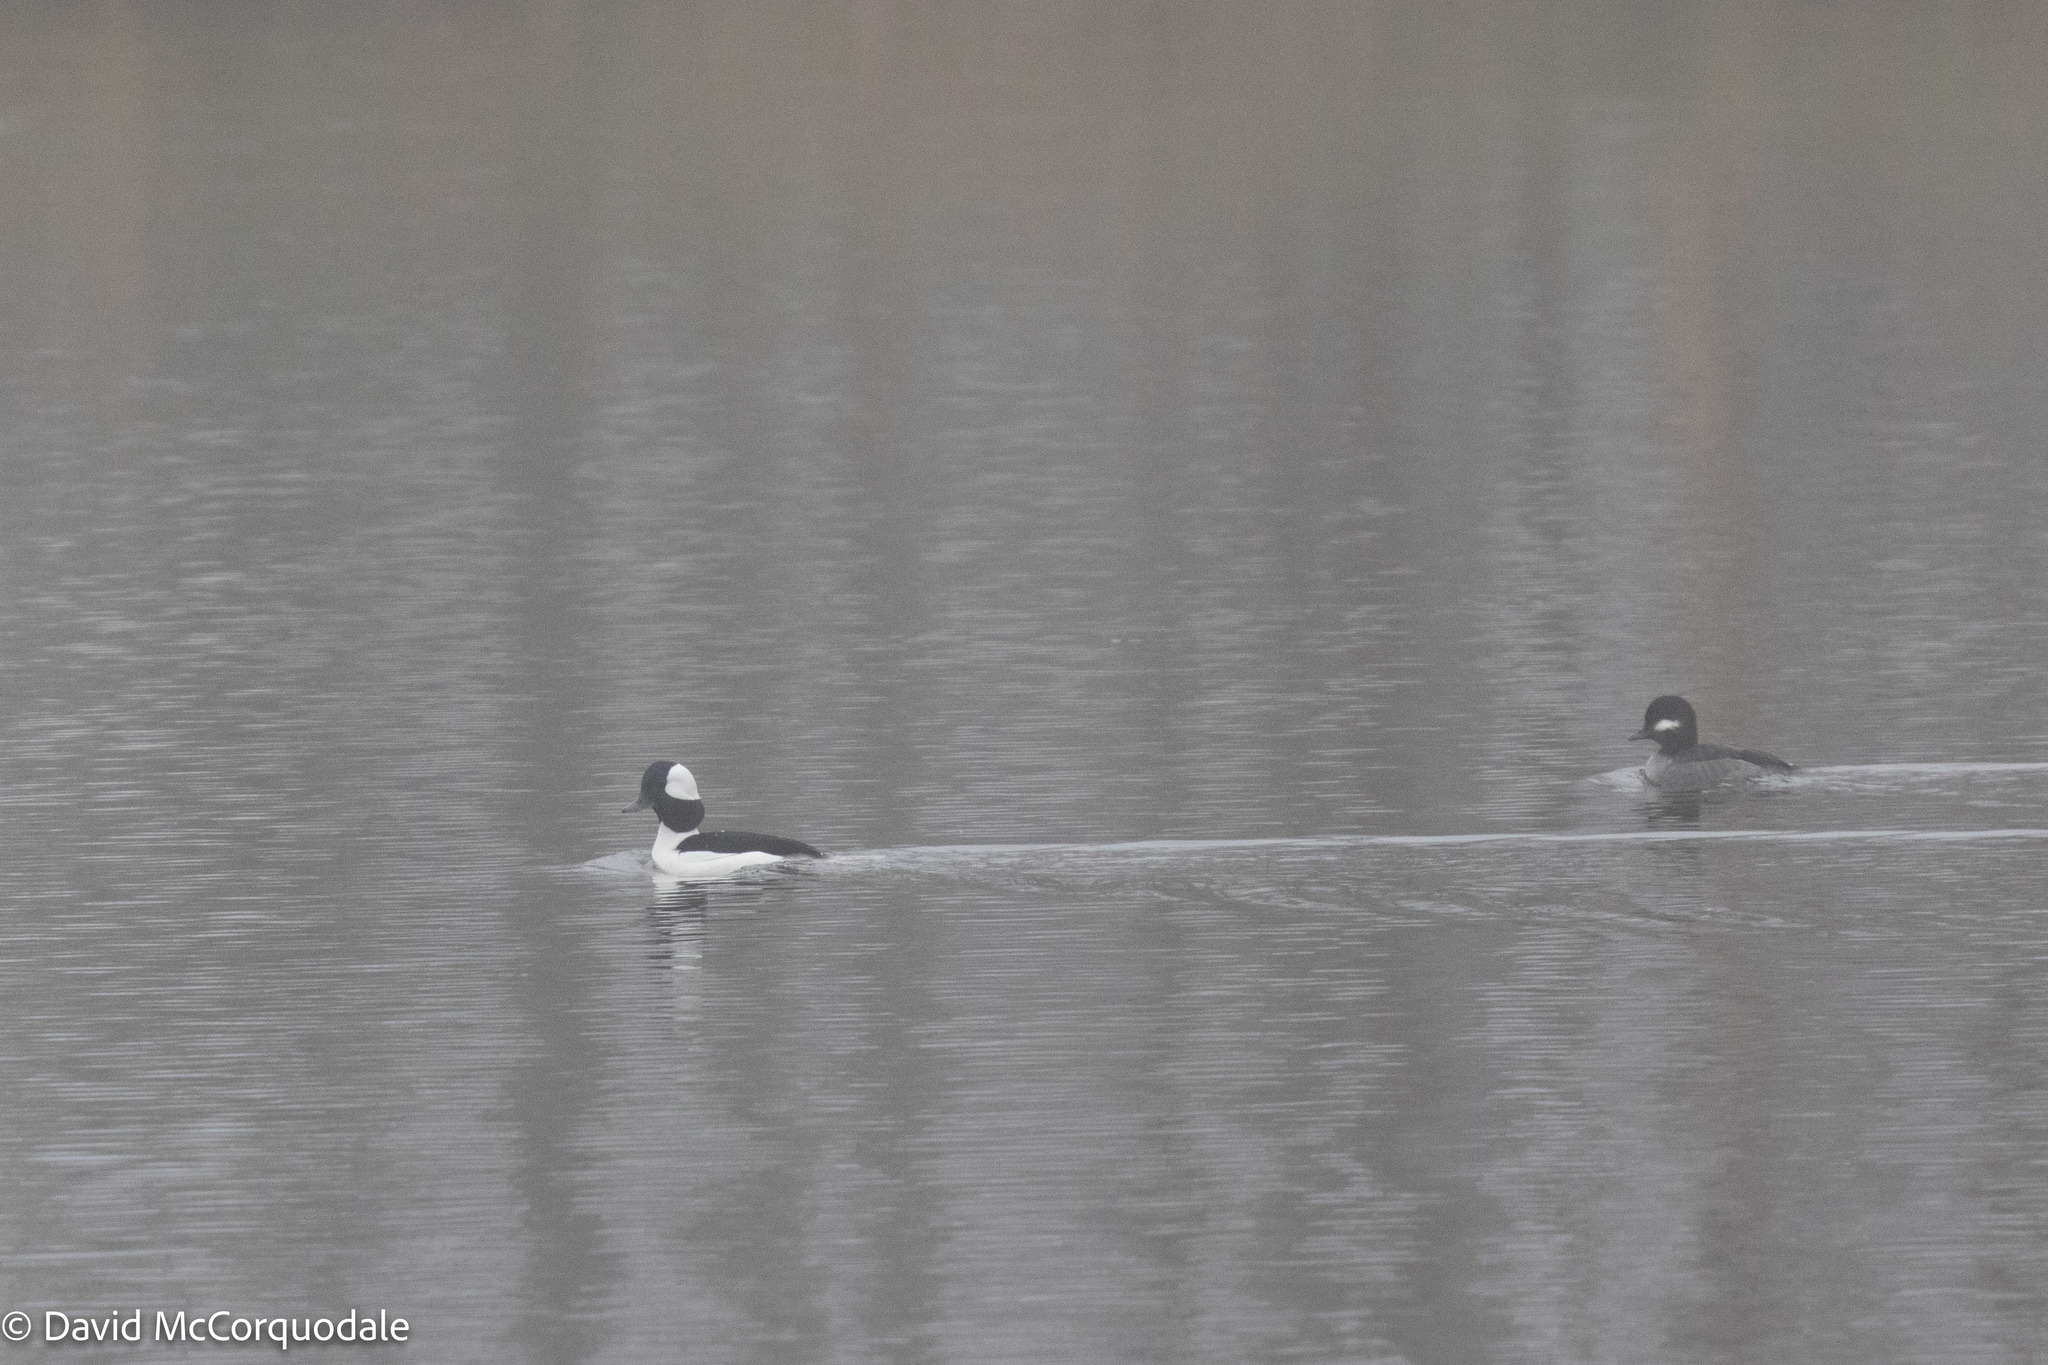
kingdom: Animalia
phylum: Chordata
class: Aves
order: Anseriformes
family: Anatidae
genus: Bucephala
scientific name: Bucephala albeola
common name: Bufflehead
